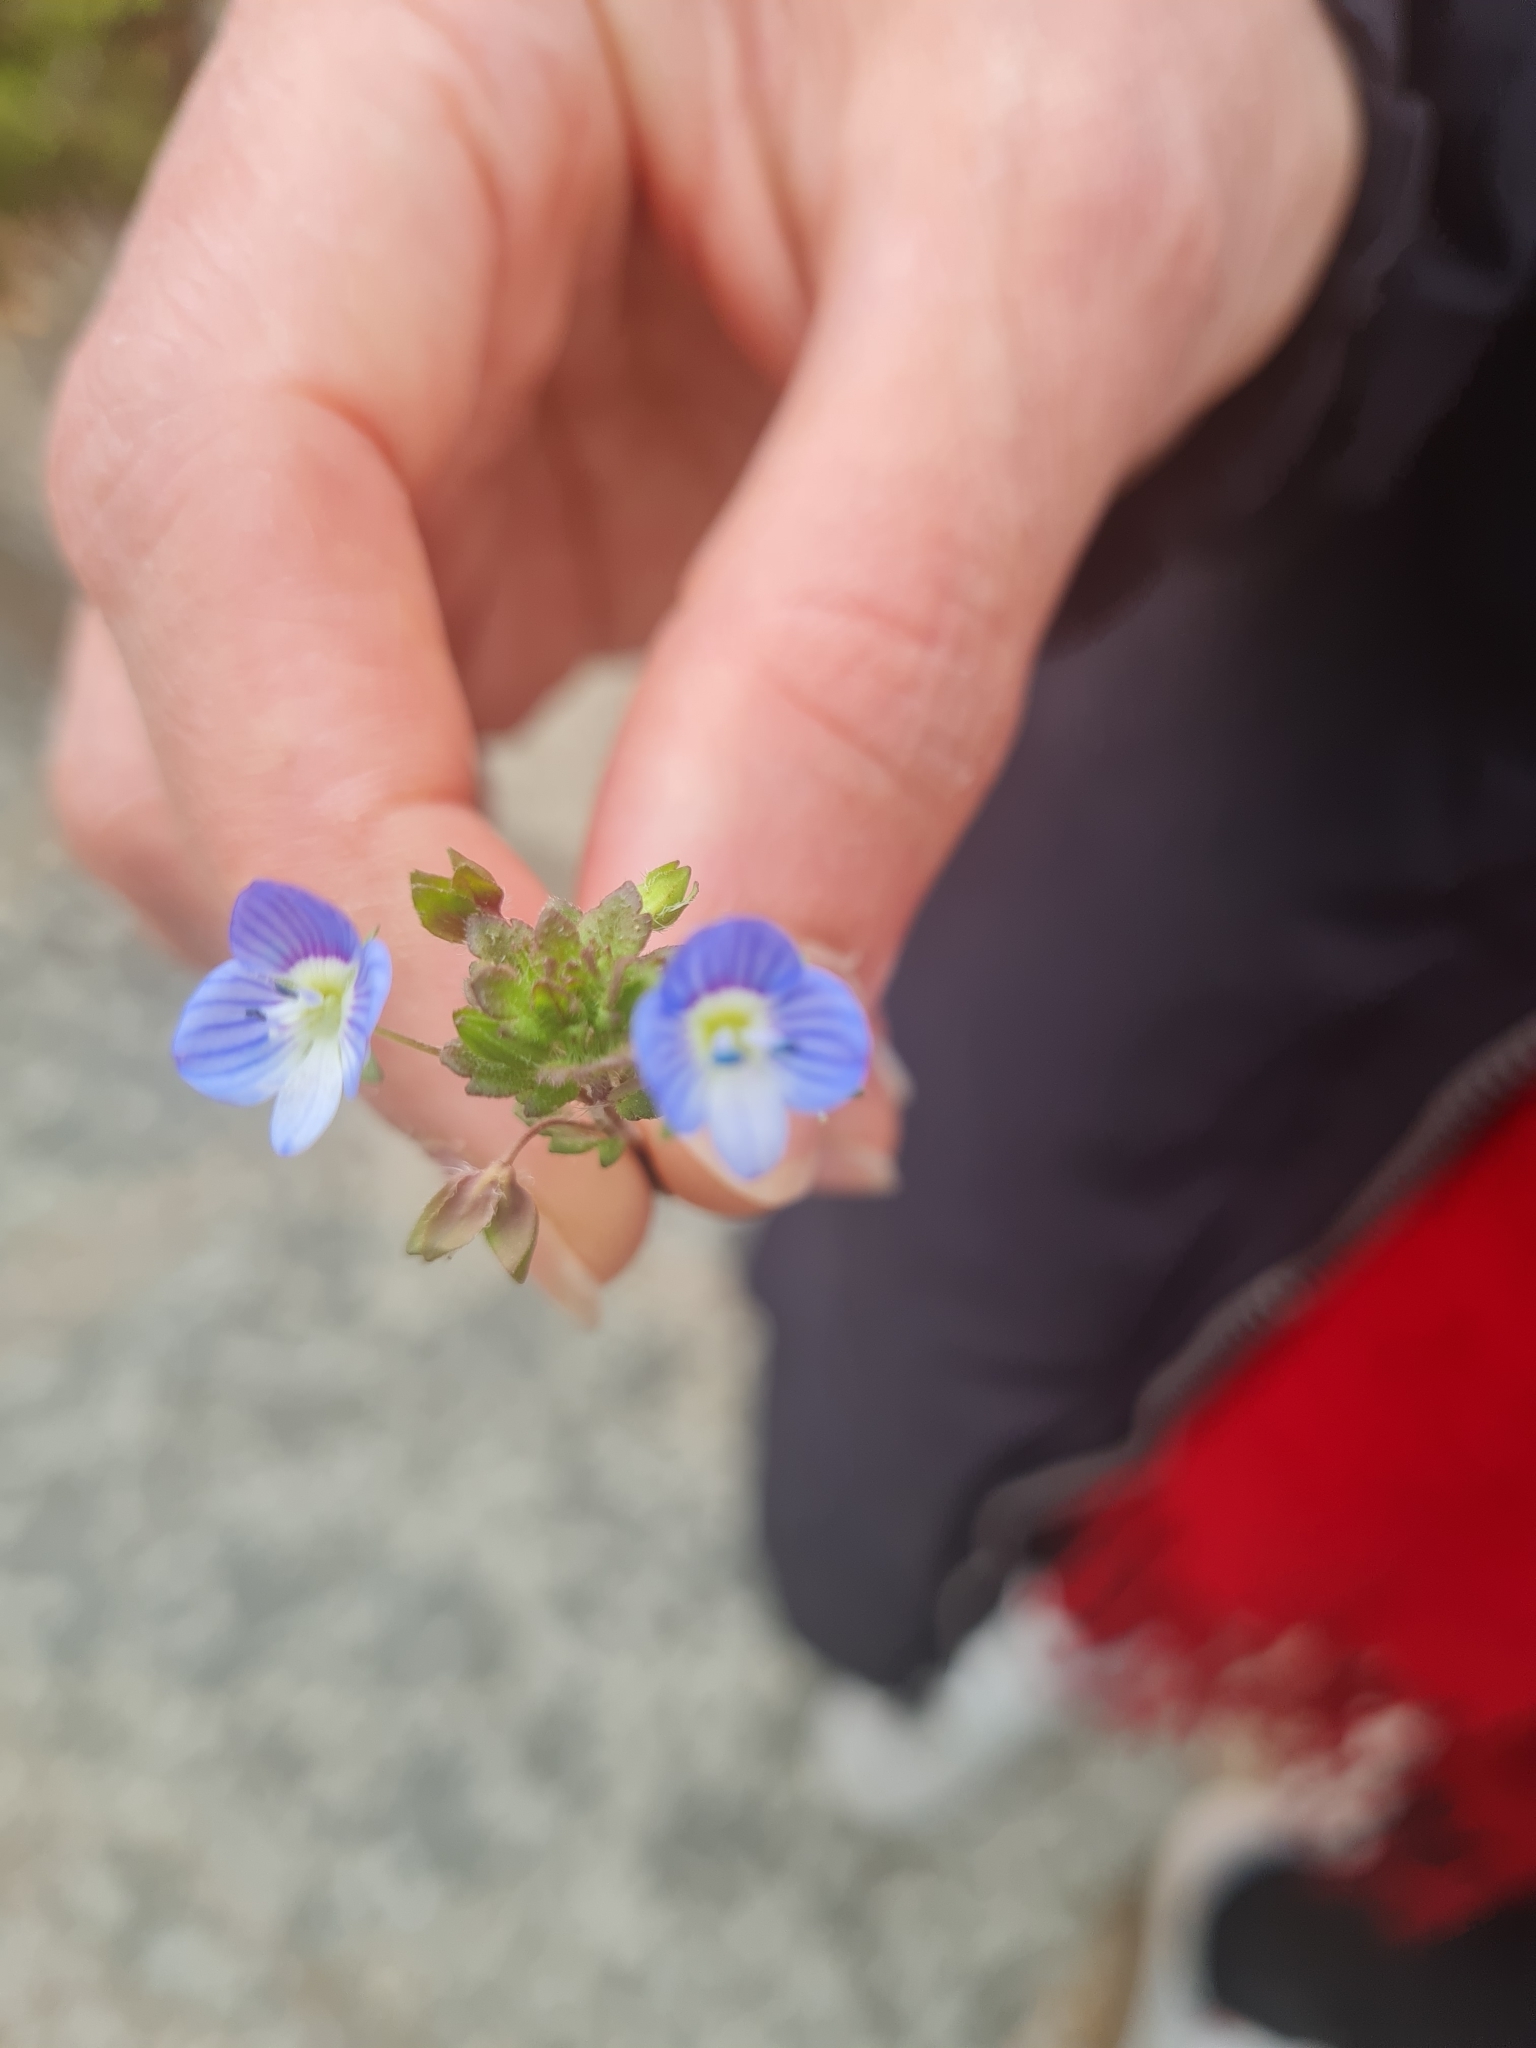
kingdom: Plantae
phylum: Tracheophyta
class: Magnoliopsida
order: Lamiales
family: Plantaginaceae
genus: Veronica
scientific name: Veronica persica
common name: Common field-speedwell
